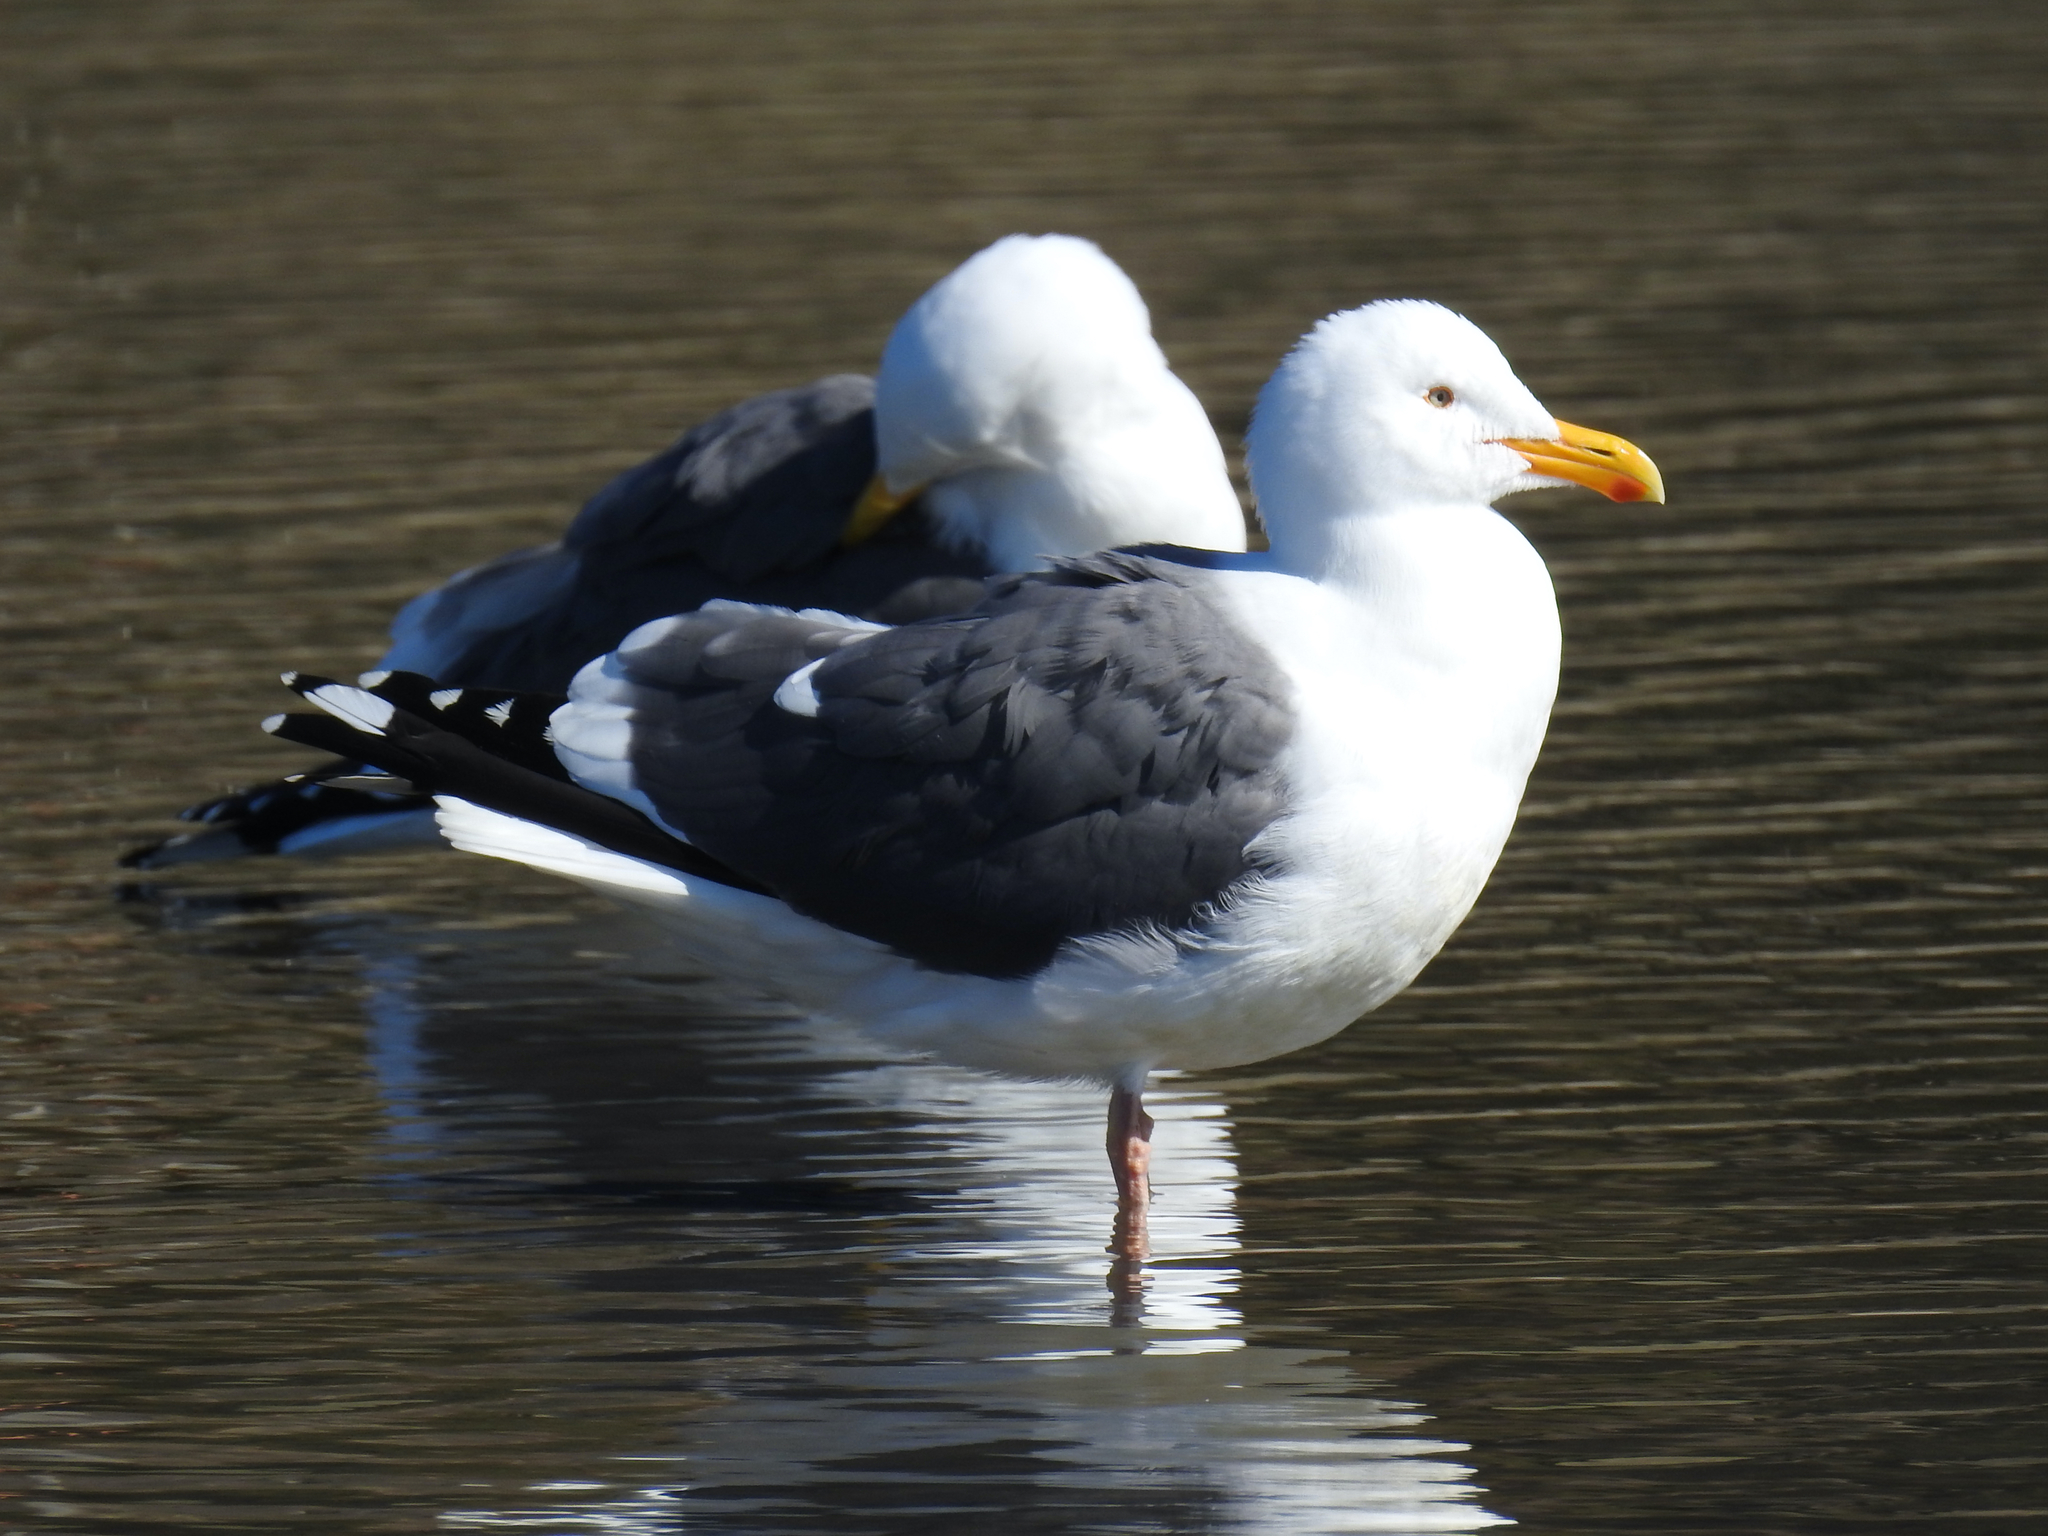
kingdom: Animalia
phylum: Chordata
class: Aves
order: Charadriiformes
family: Laridae
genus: Larus
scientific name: Larus occidentalis
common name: Western gull
